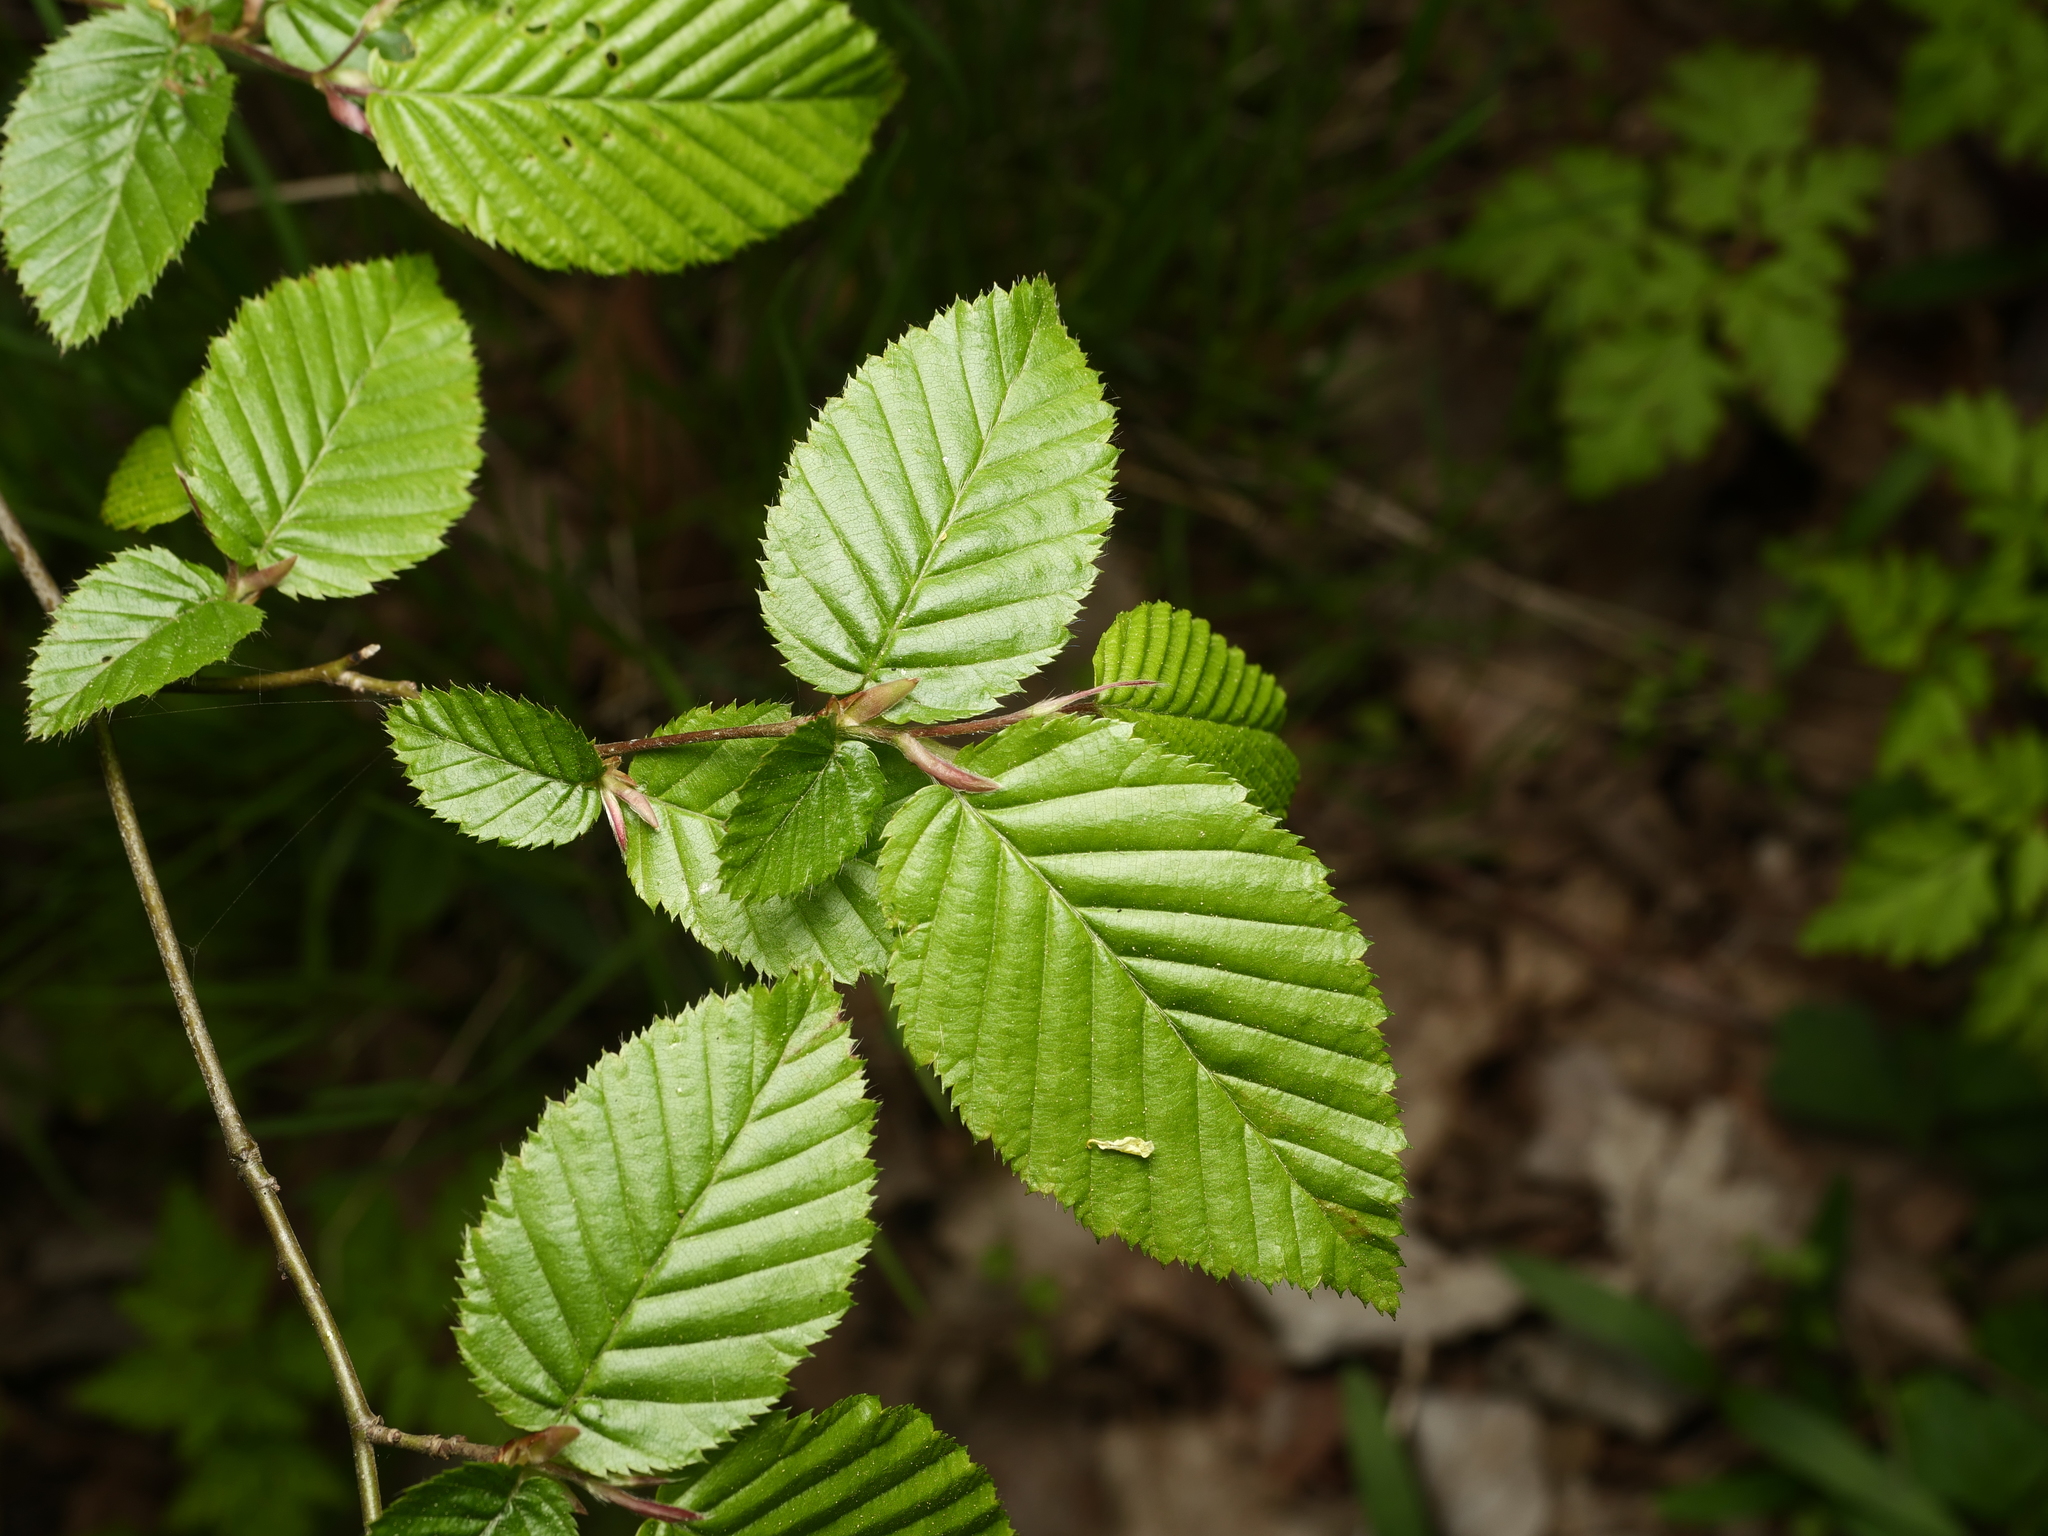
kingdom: Plantae
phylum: Tracheophyta
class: Magnoliopsida
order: Fagales
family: Betulaceae
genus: Carpinus
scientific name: Carpinus betulus
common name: Hornbeam
